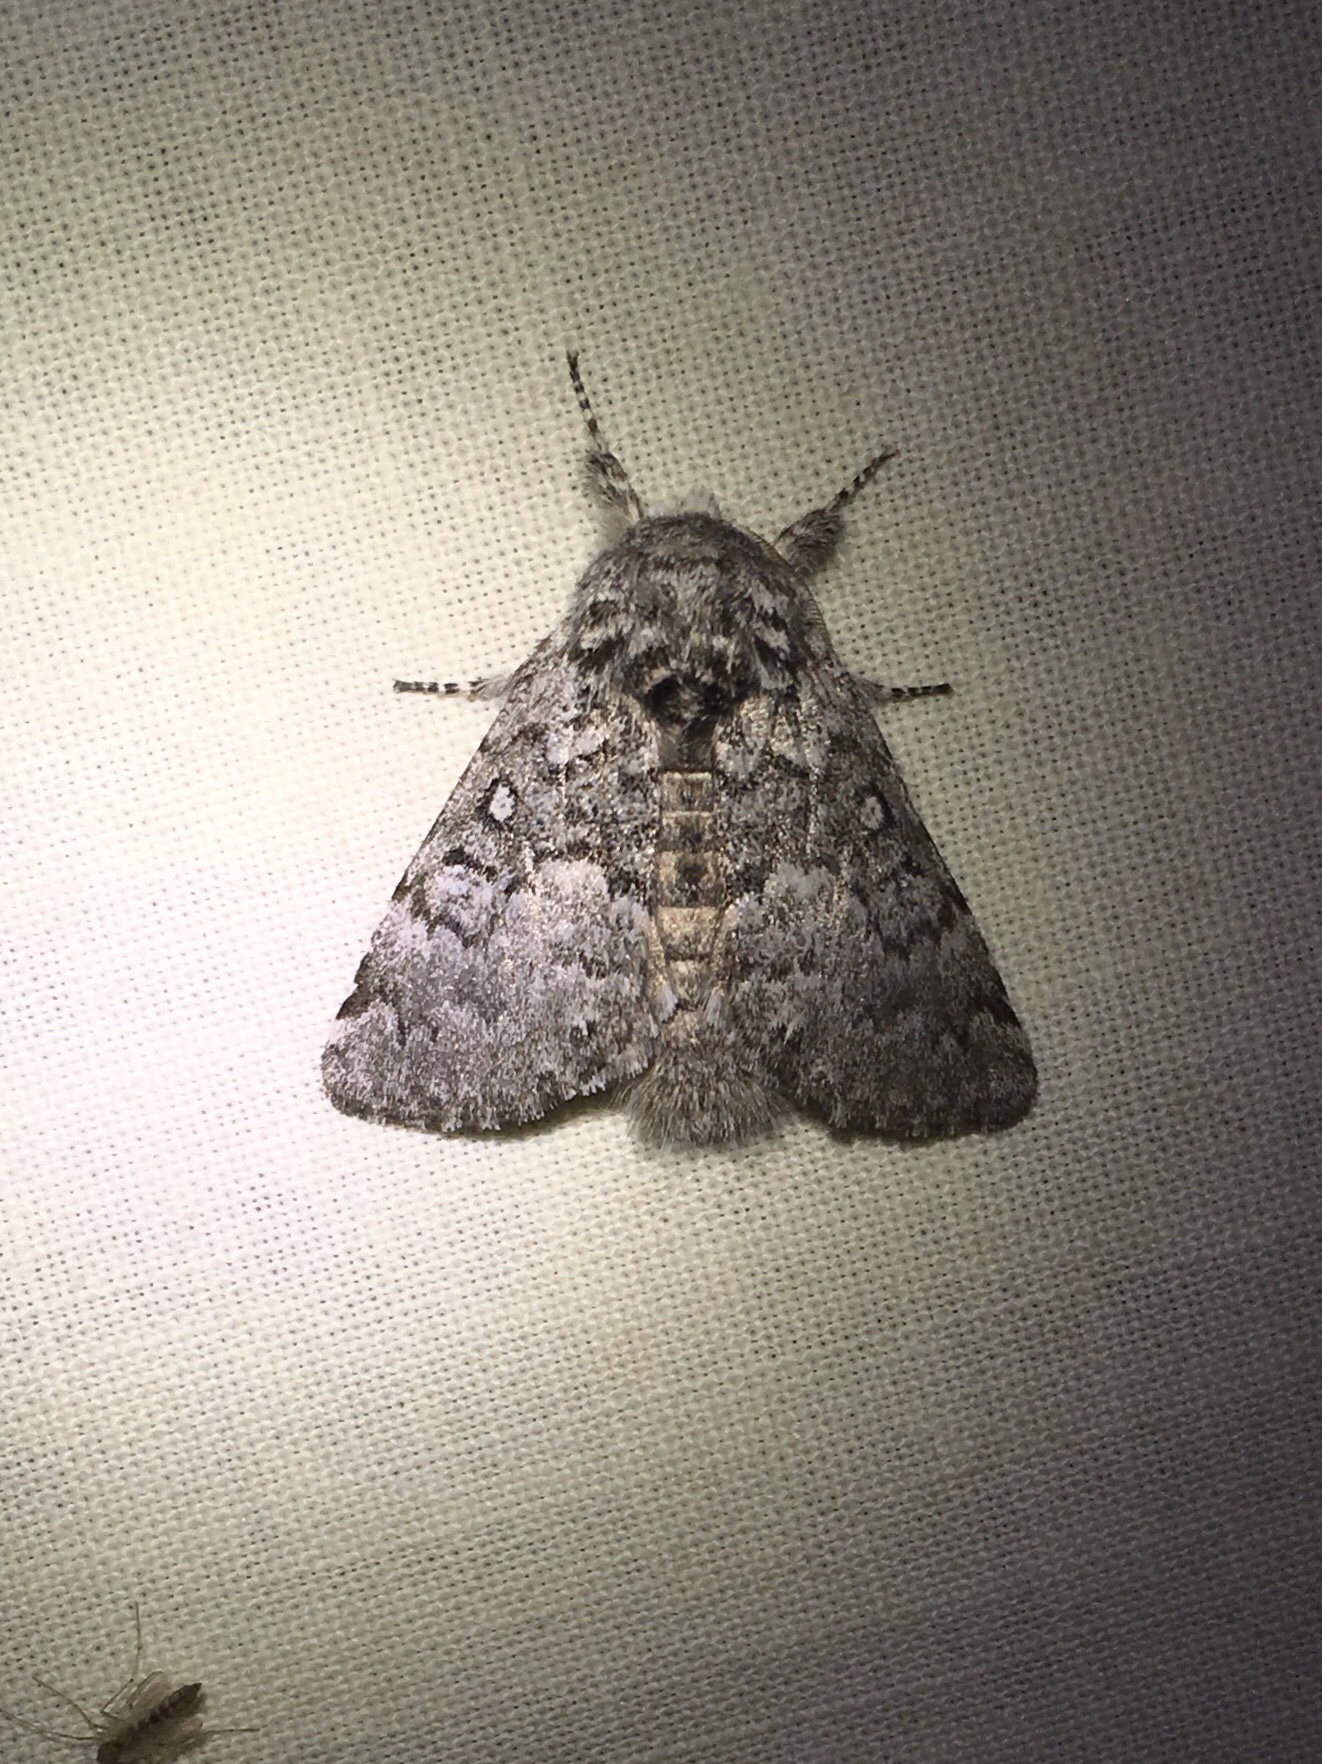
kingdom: Animalia
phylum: Arthropoda
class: Insecta
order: Lepidoptera
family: Noctuidae
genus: Colocasia
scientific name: Colocasia propinquilinea
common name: Close-banded demas
